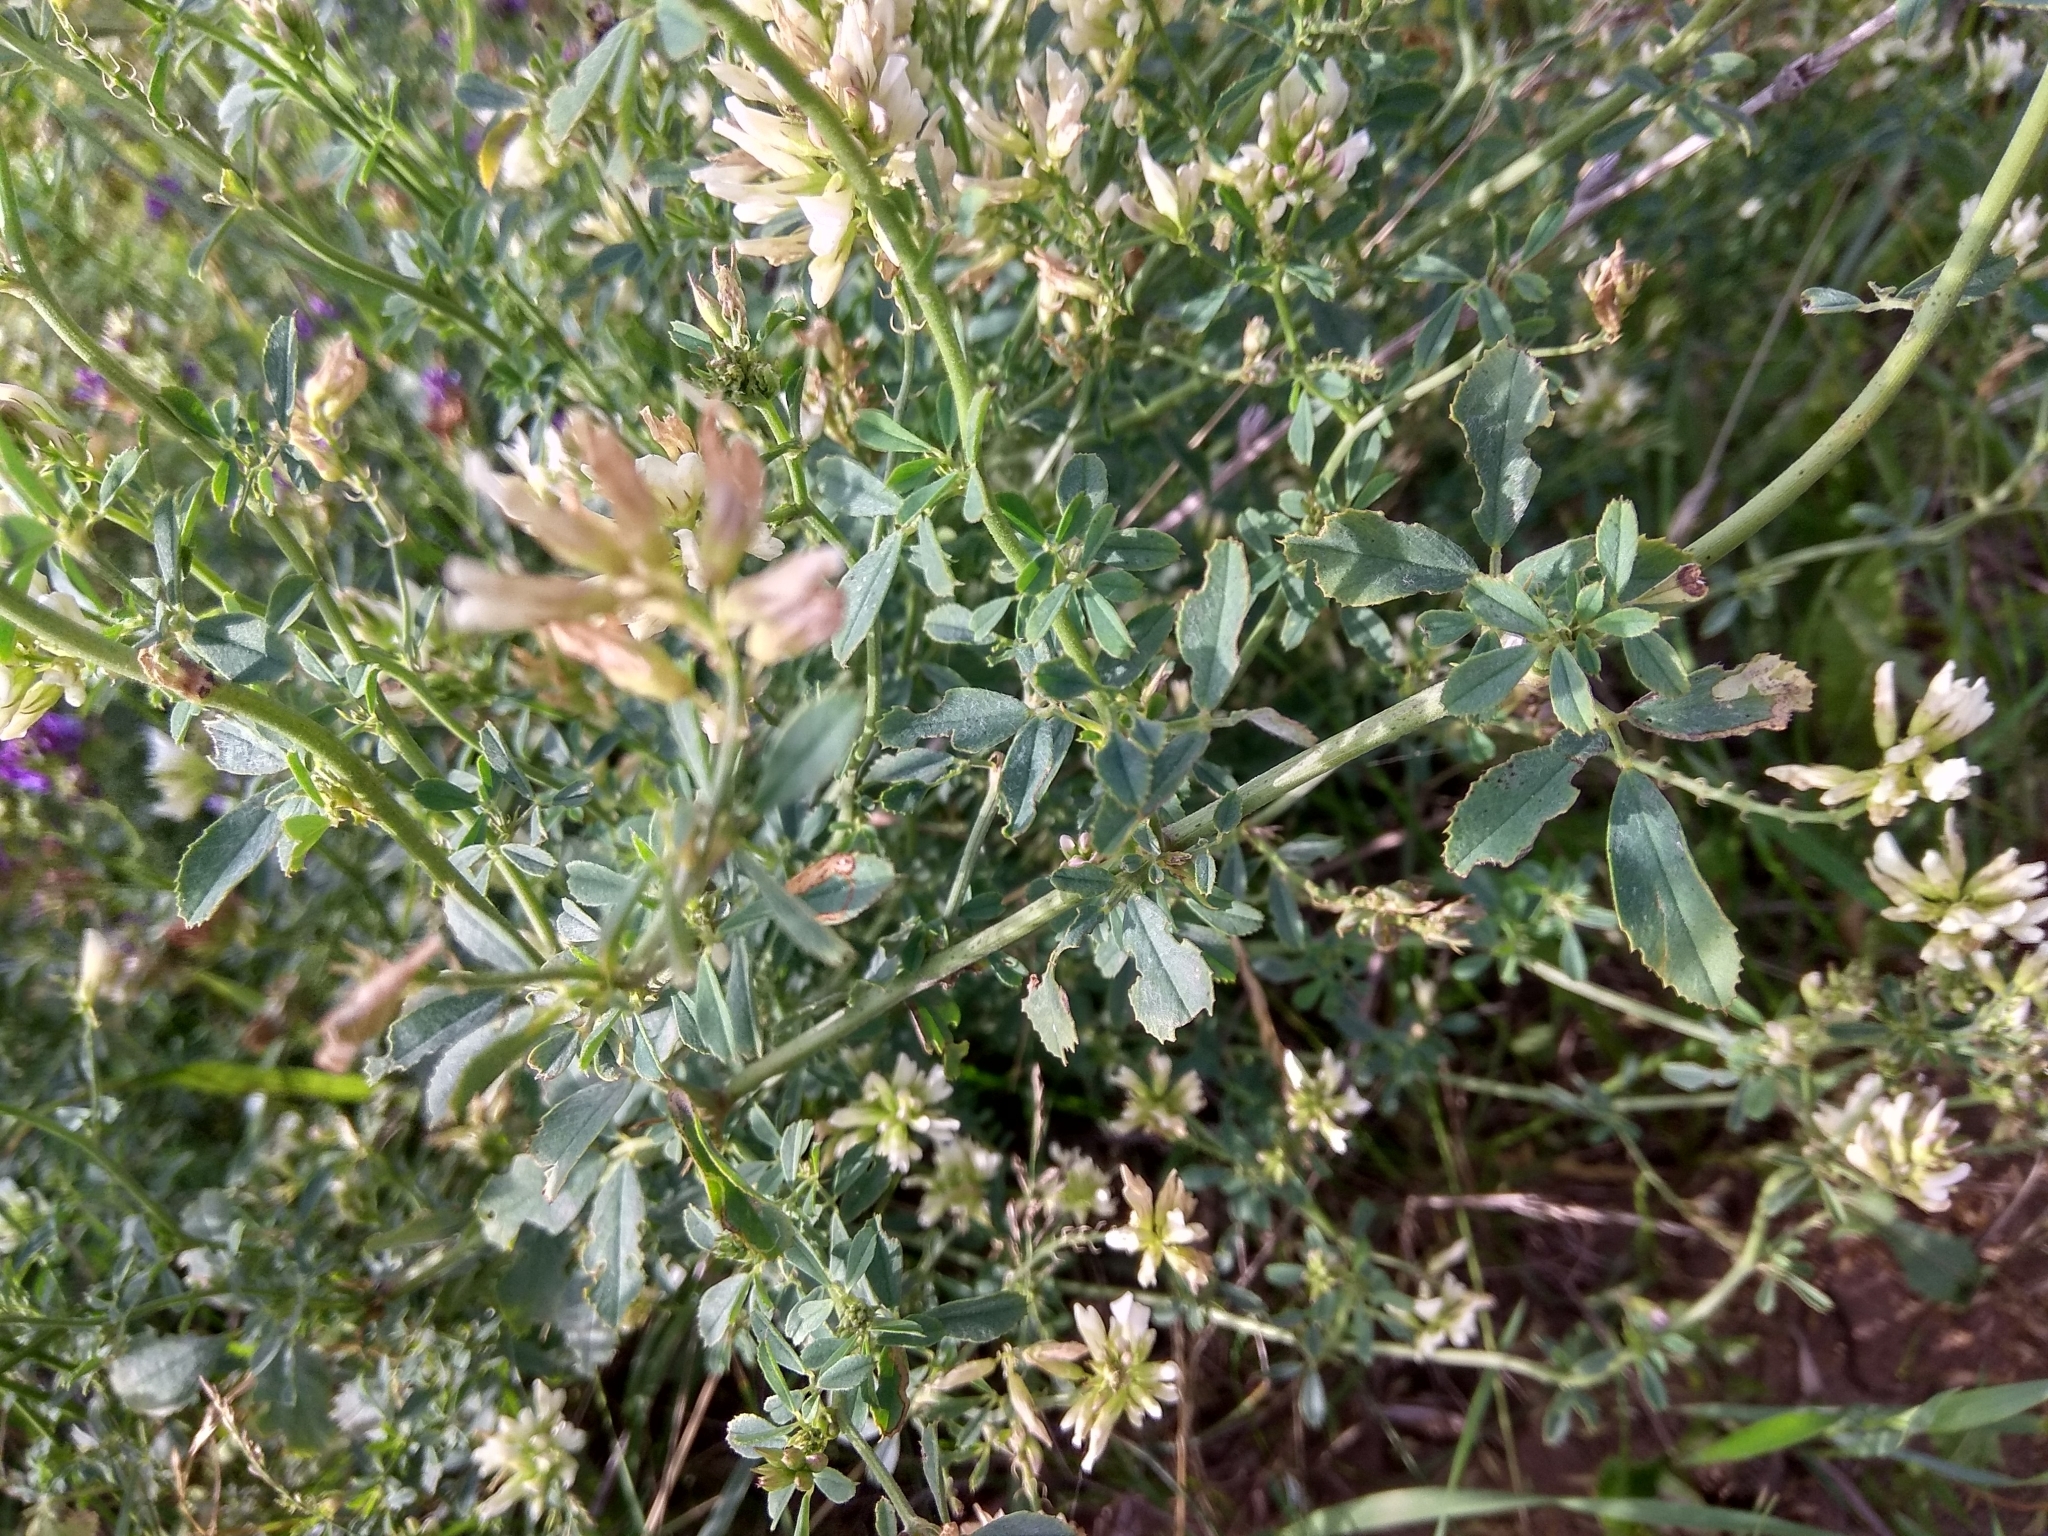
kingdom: Plantae
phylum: Tracheophyta
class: Magnoliopsida
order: Fabales
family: Fabaceae
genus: Medicago
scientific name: Medicago varia
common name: Sand lucerne
